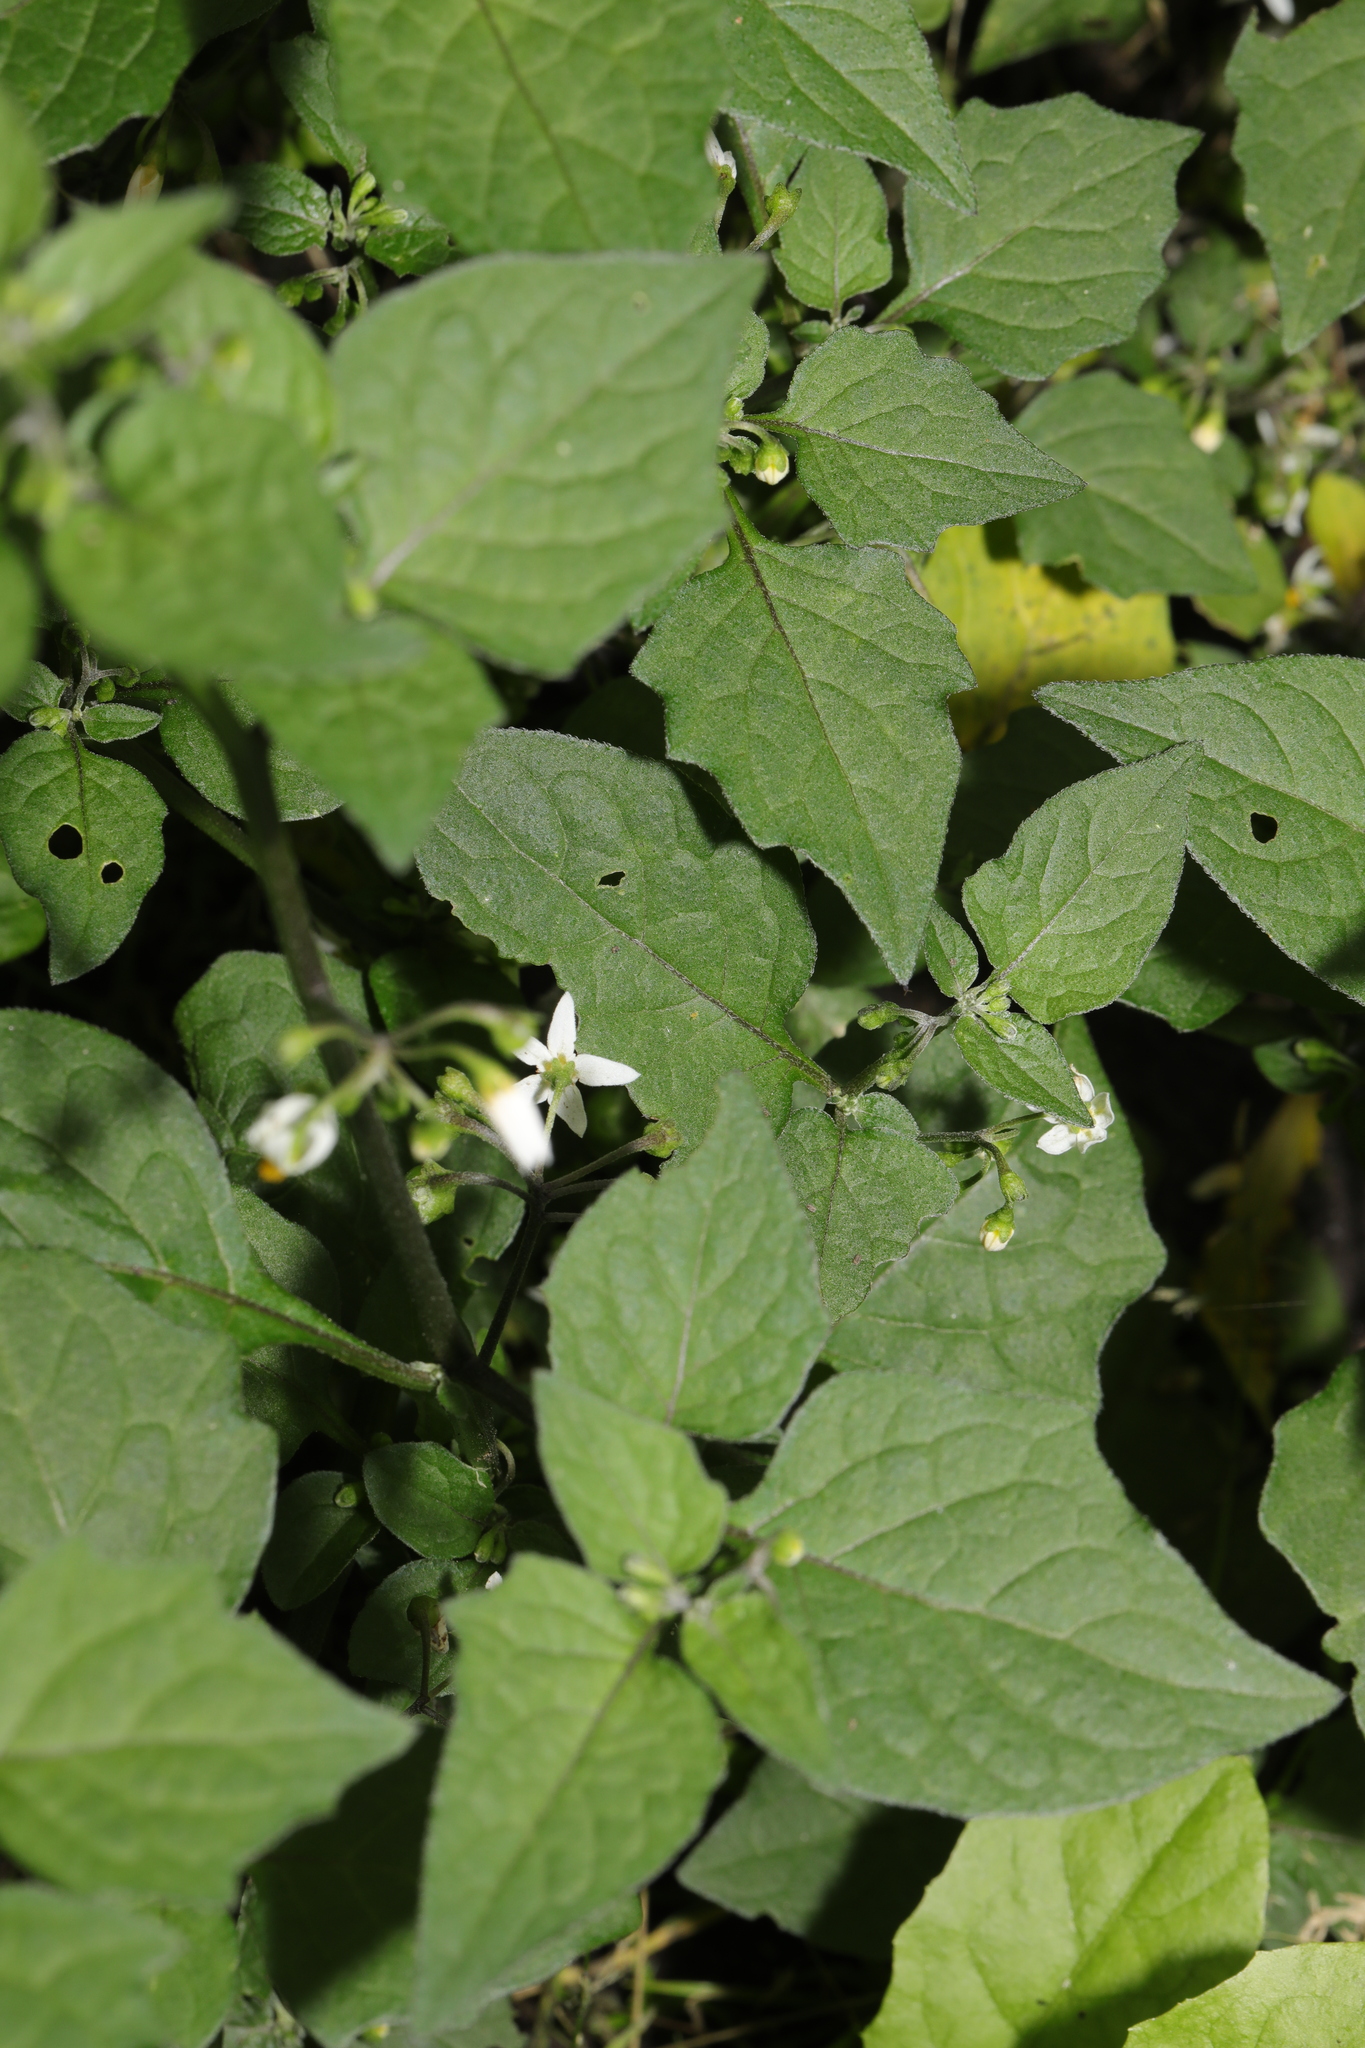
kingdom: Plantae
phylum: Tracheophyta
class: Magnoliopsida
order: Solanales
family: Solanaceae
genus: Solanum
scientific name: Solanum nigrum
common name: Black nightshade
